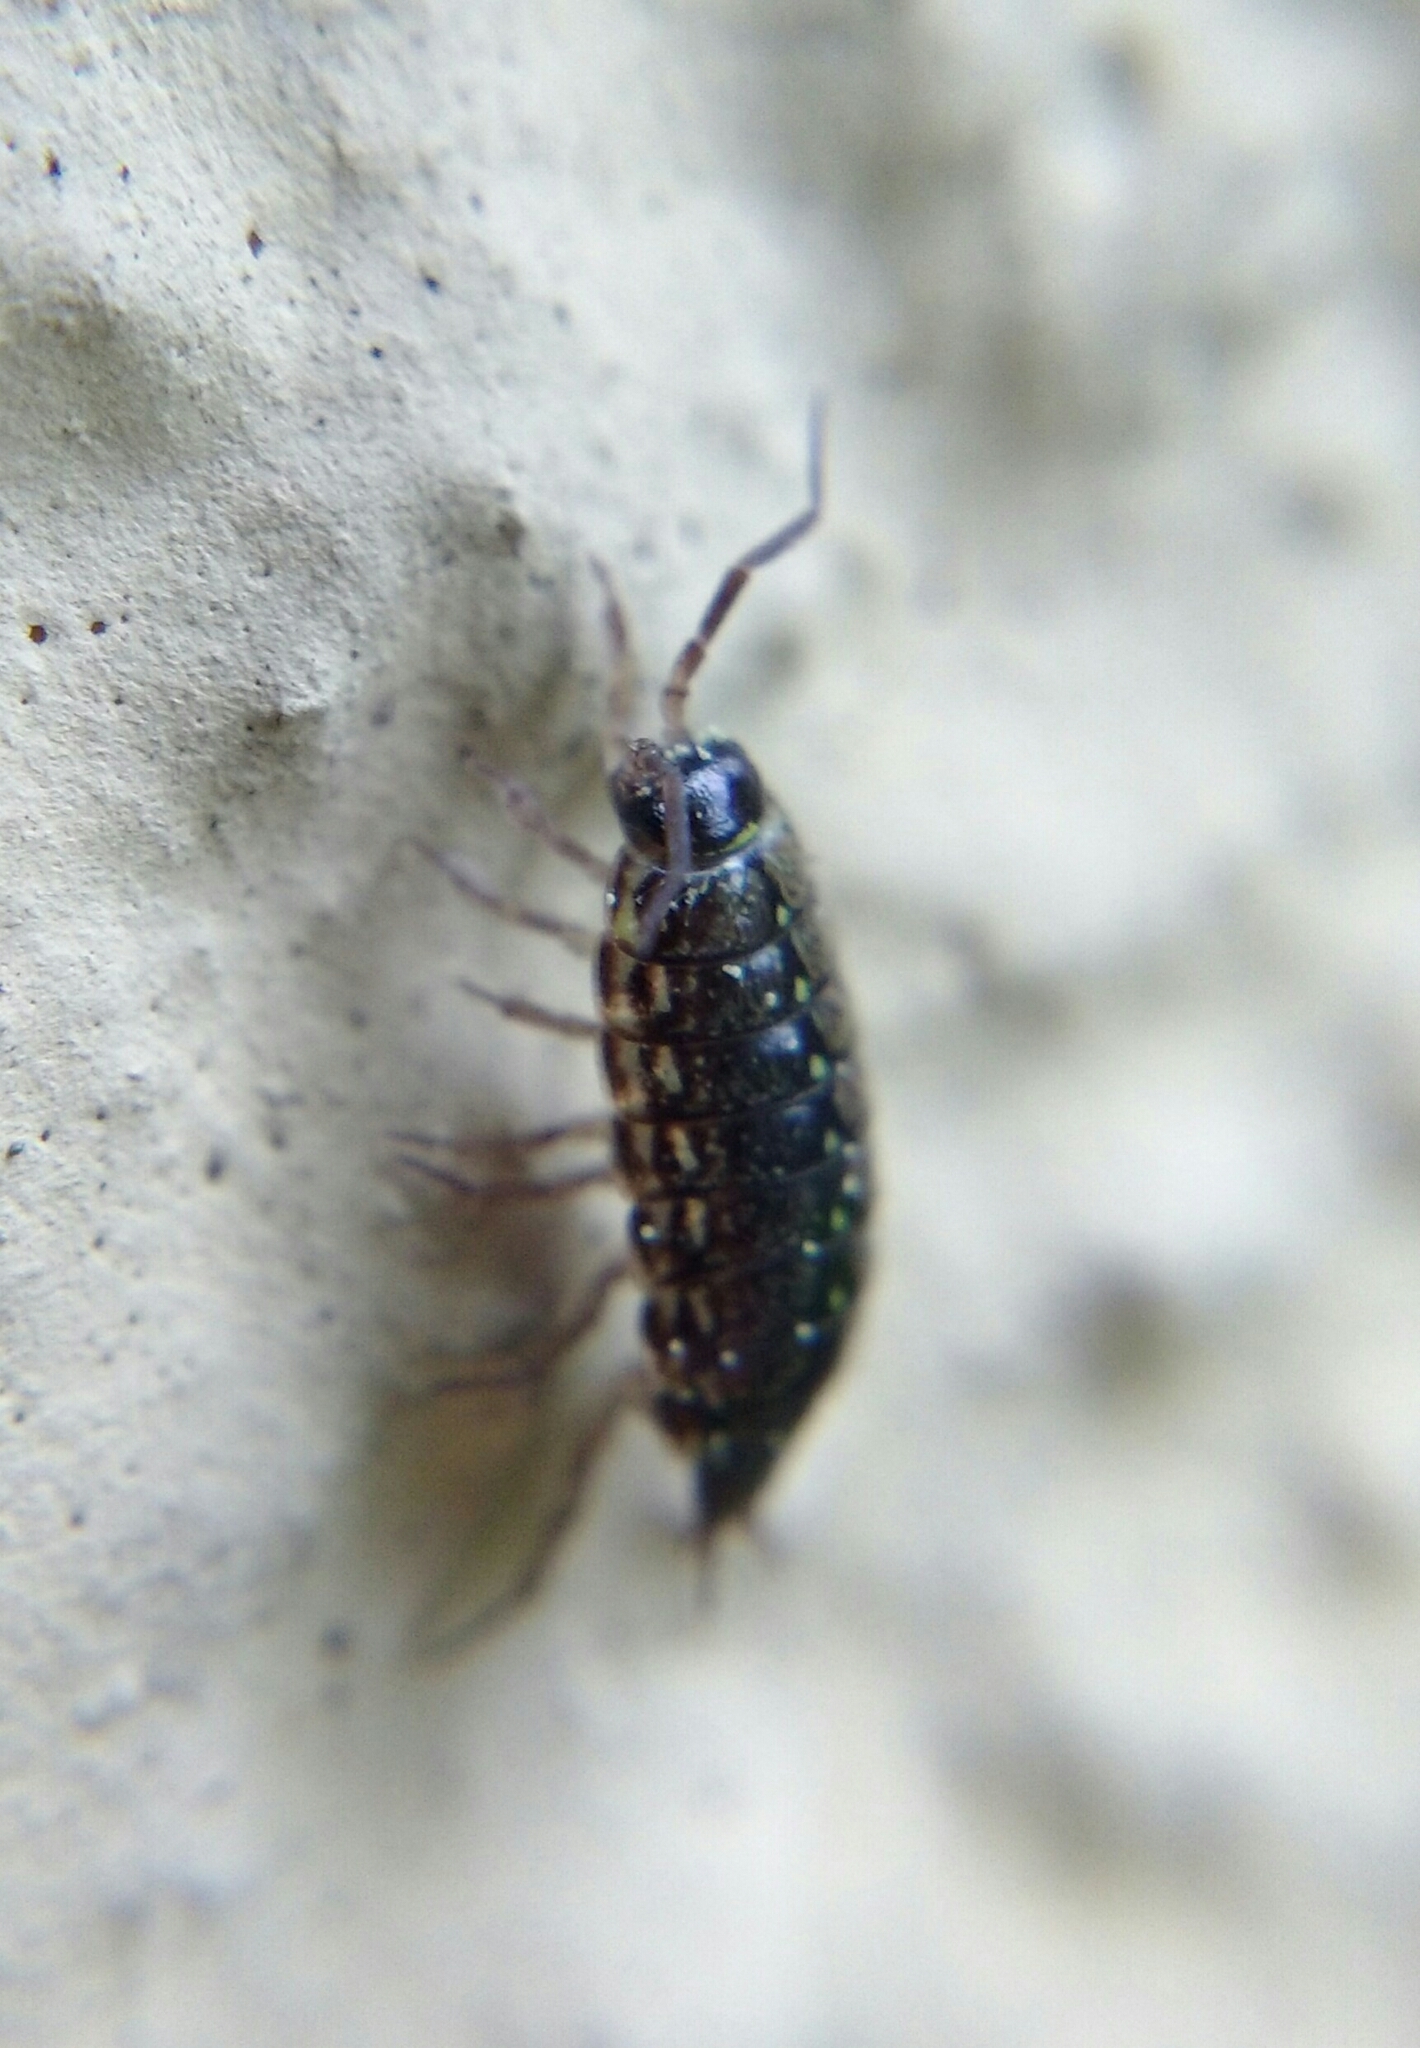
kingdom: Animalia
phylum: Arthropoda
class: Malacostraca
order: Isopoda
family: Philosciidae
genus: Philoscia
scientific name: Philoscia muscorum
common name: Common striped woodlouse
